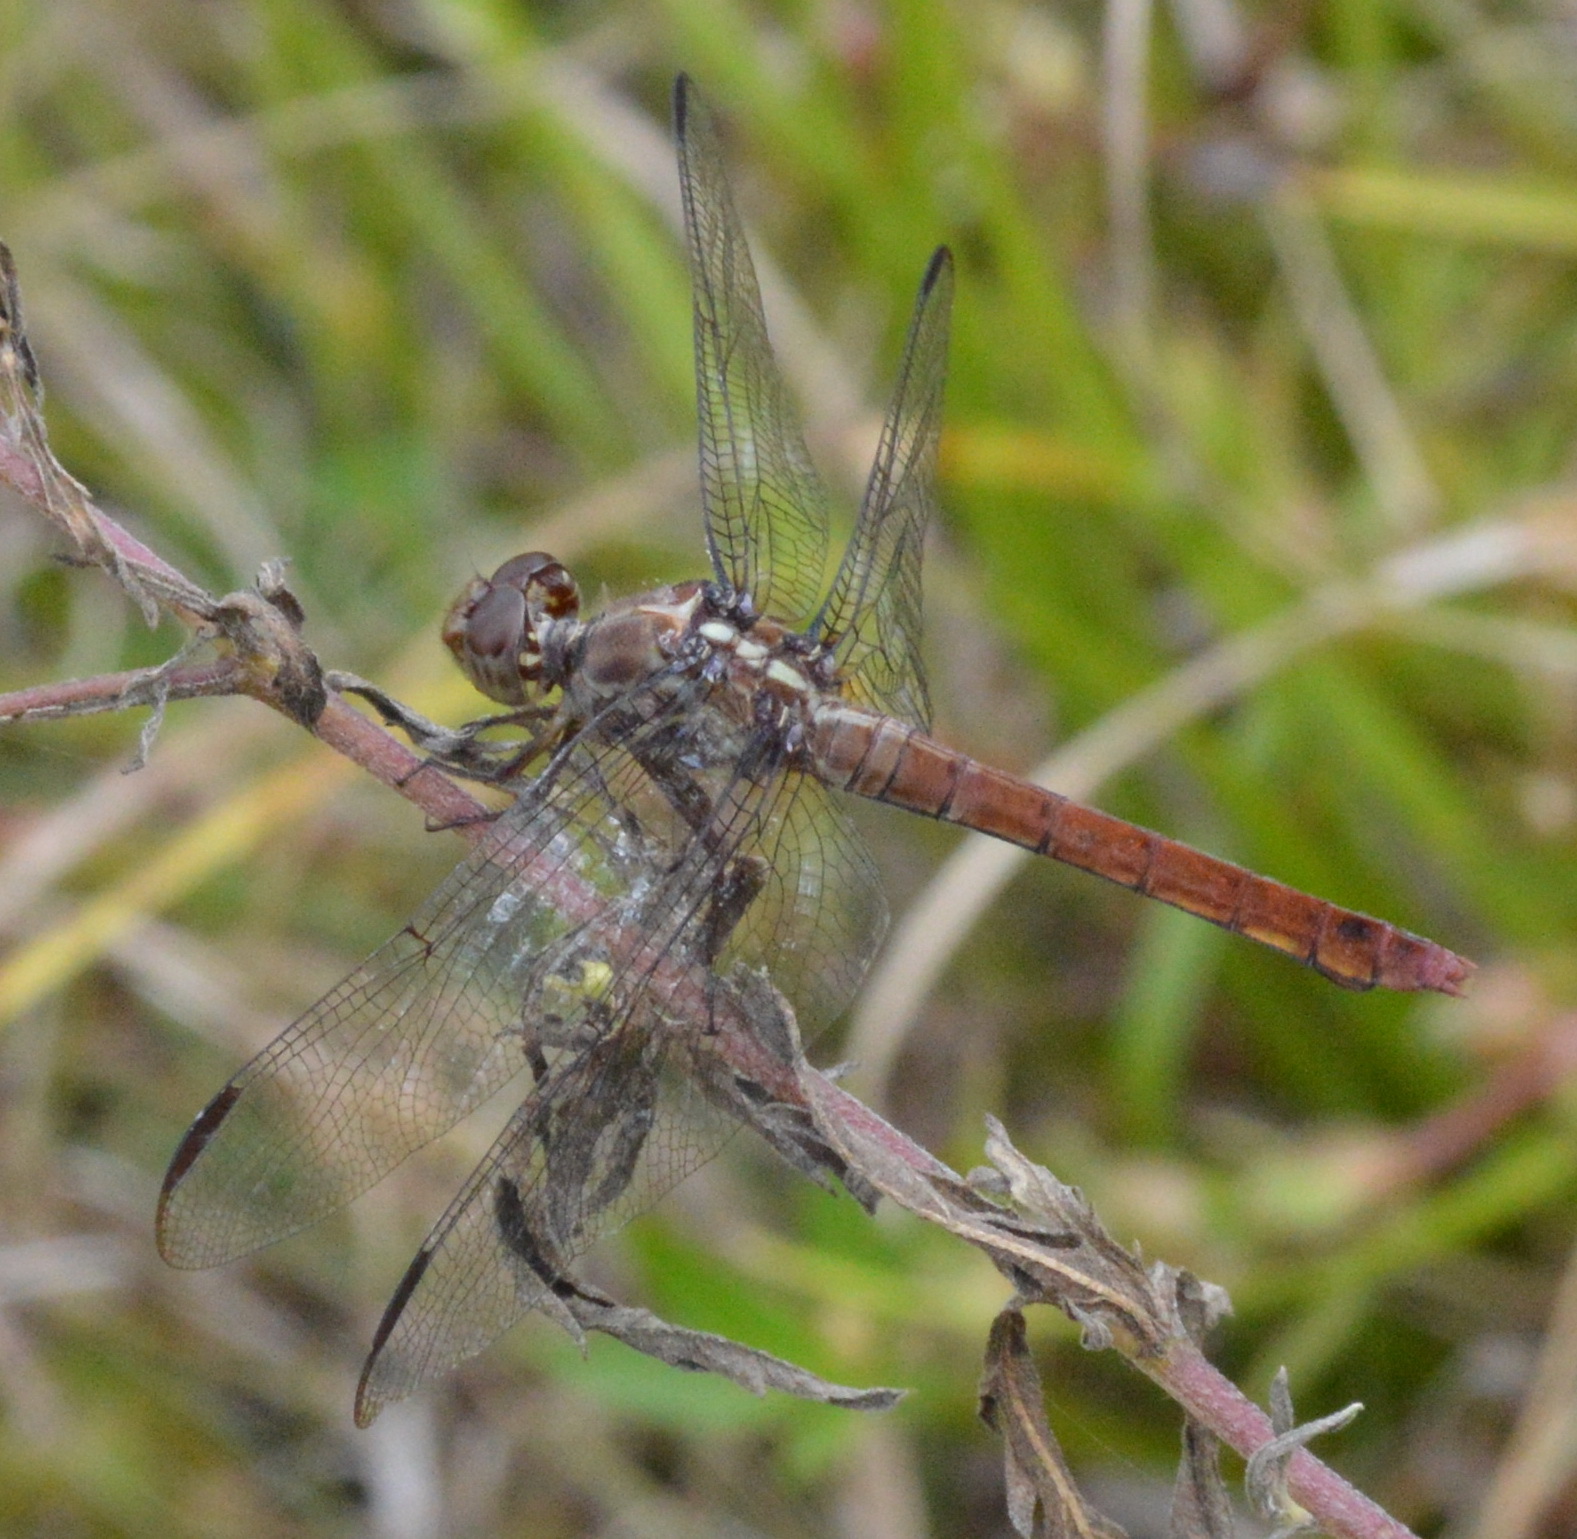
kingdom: Animalia
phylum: Arthropoda
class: Insecta
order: Odonata
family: Libellulidae
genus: Orthemis
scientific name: Orthemis ferruginea
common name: Roseate skimmer
